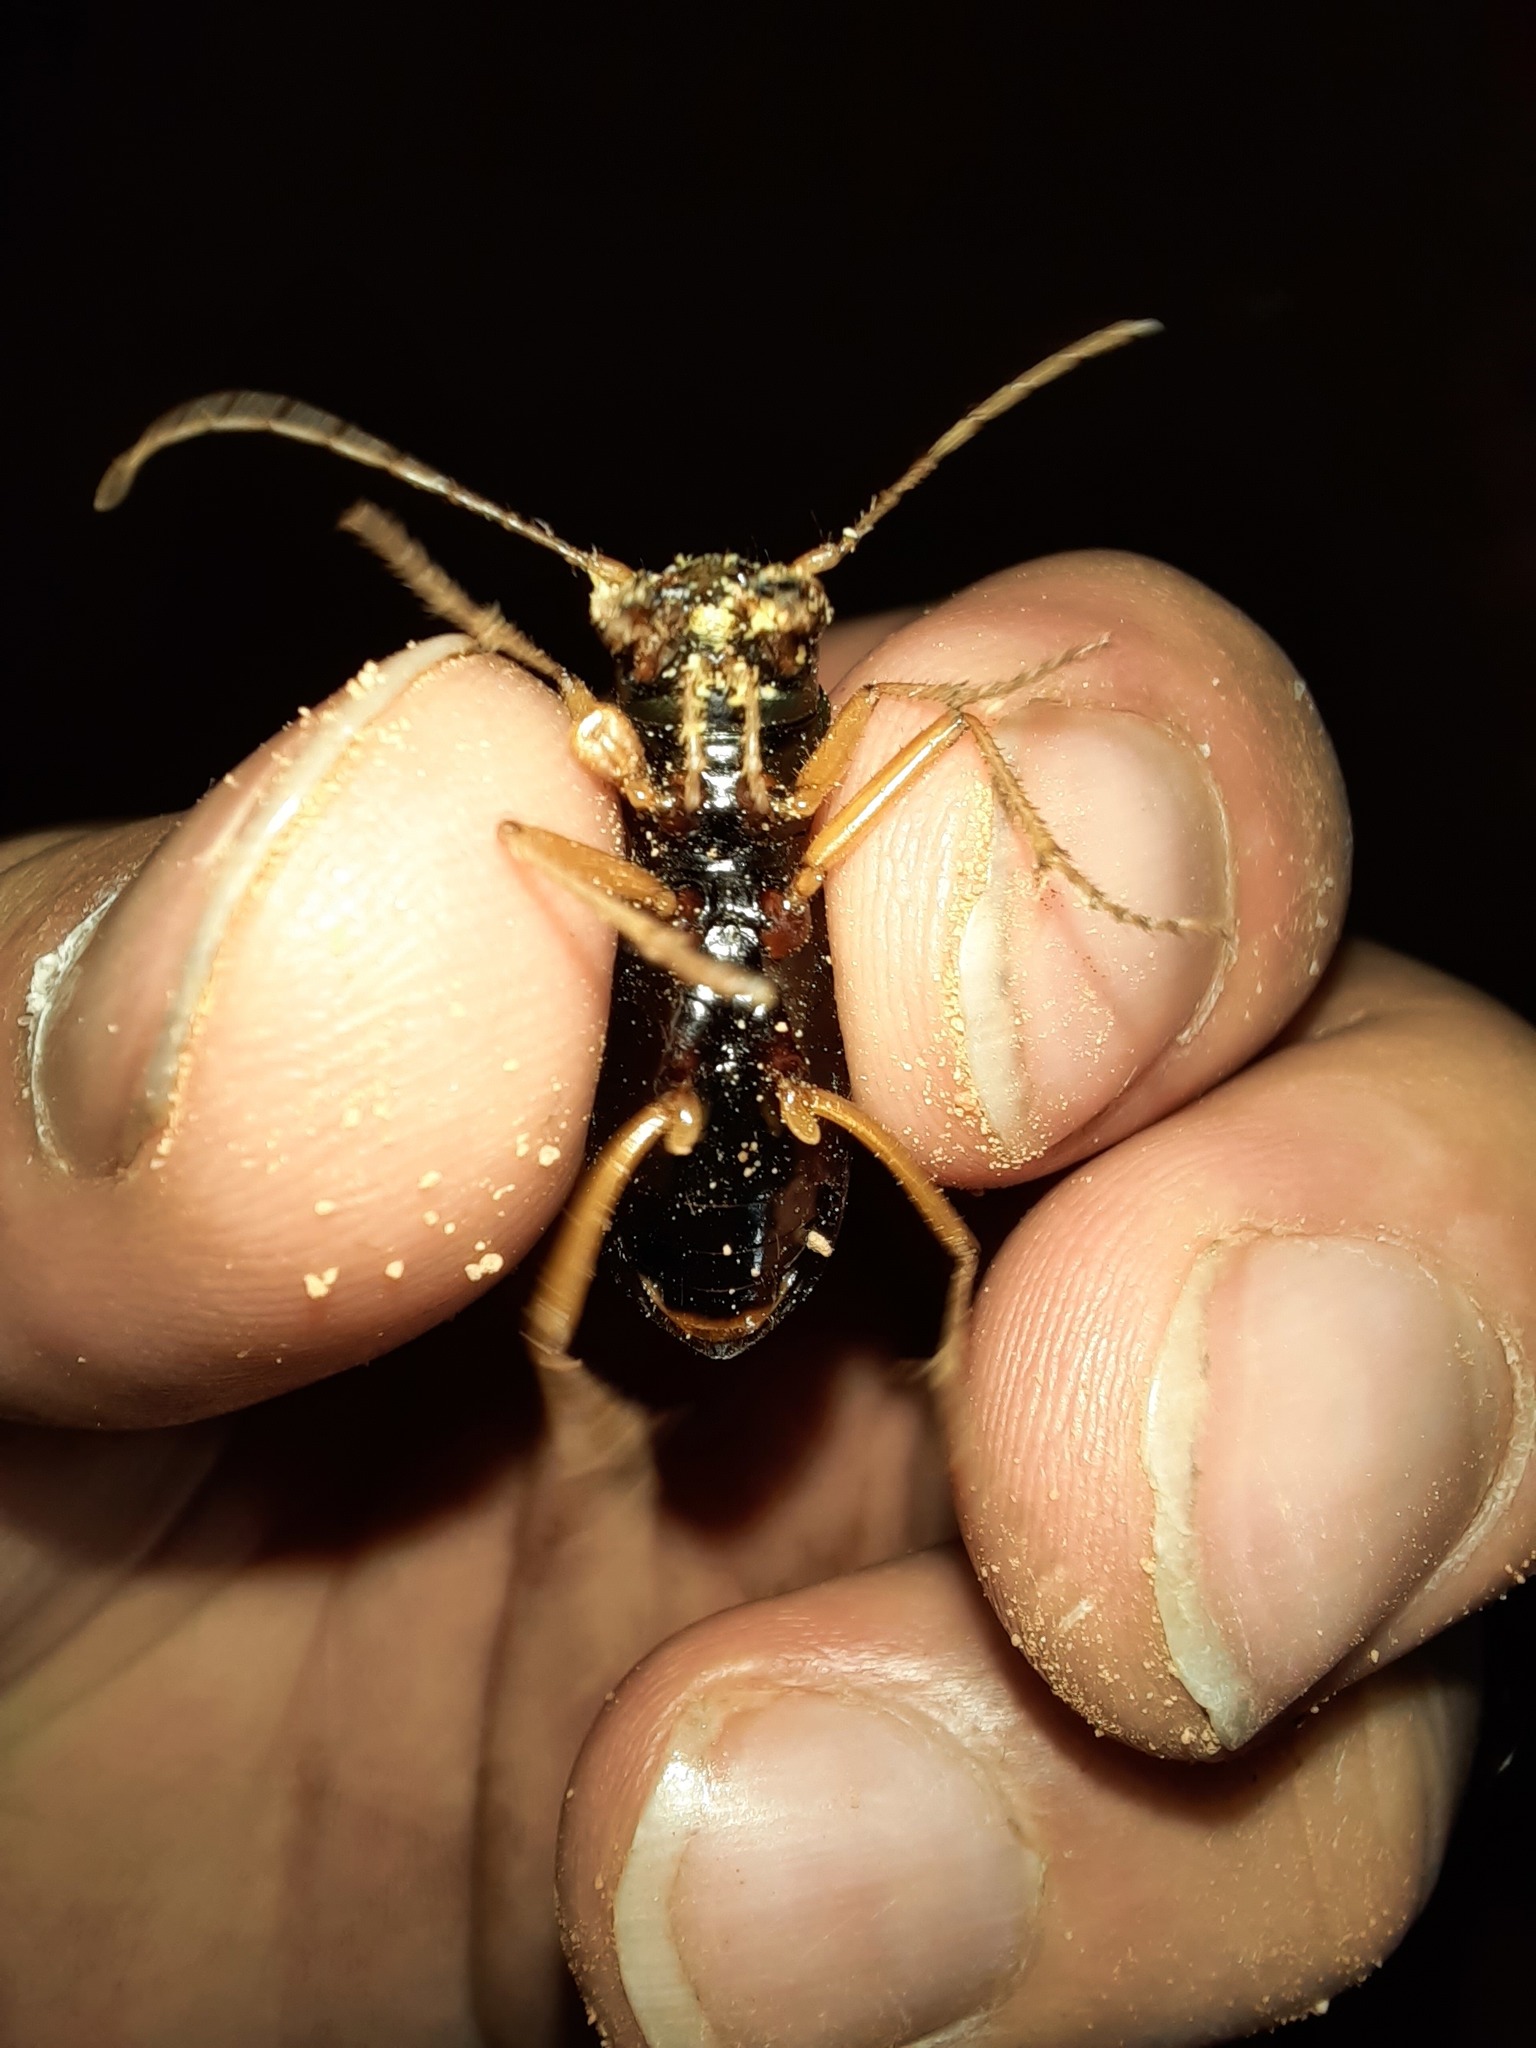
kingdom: Animalia
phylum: Arthropoda
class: Insecta
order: Coleoptera
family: Carabidae
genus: Pseudotetracha
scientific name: Pseudotetracha cylindrica
